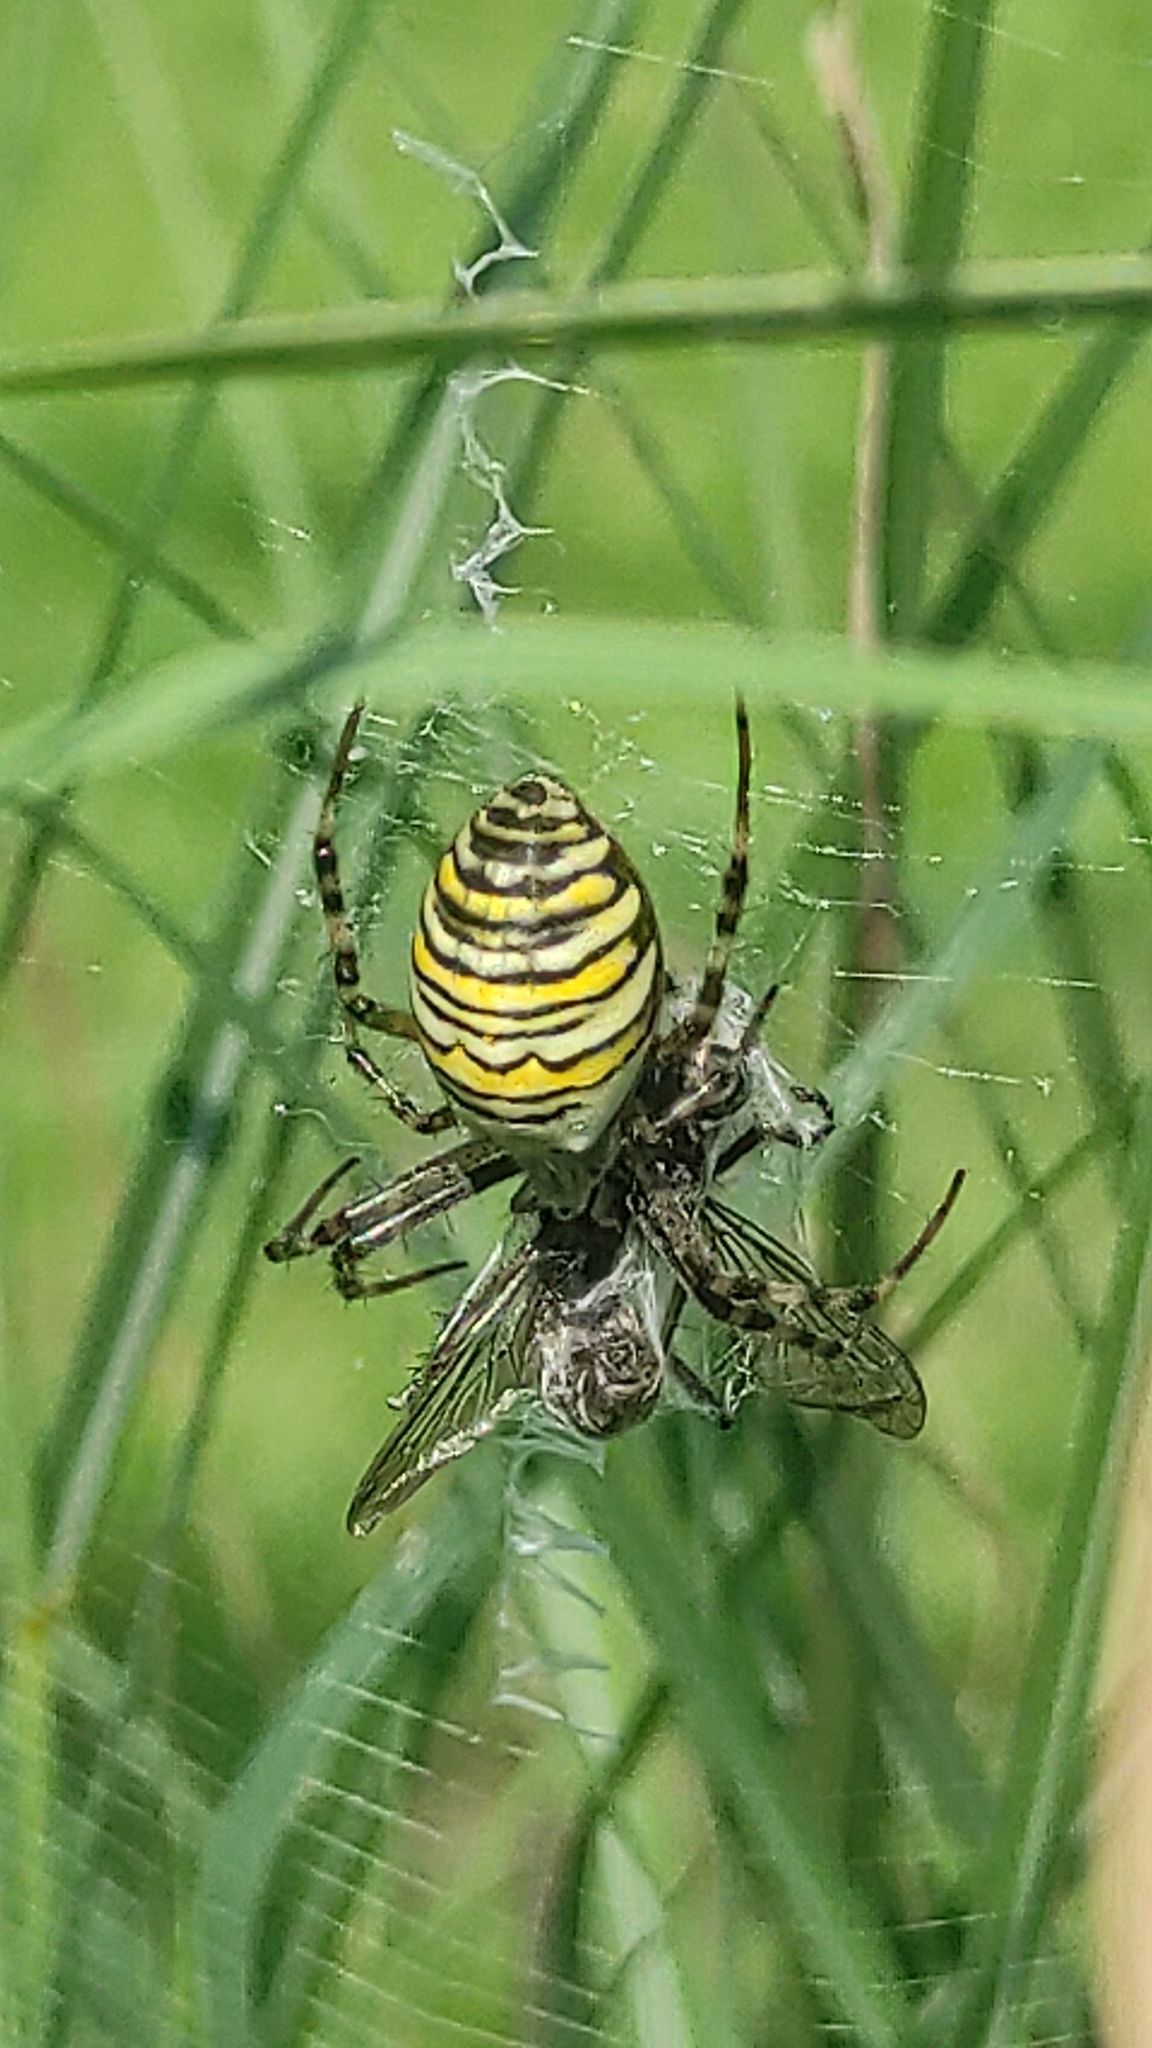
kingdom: Animalia
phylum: Arthropoda
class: Arachnida
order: Araneae
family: Araneidae
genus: Argiope
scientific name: Argiope bruennichi
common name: Wasp spider
